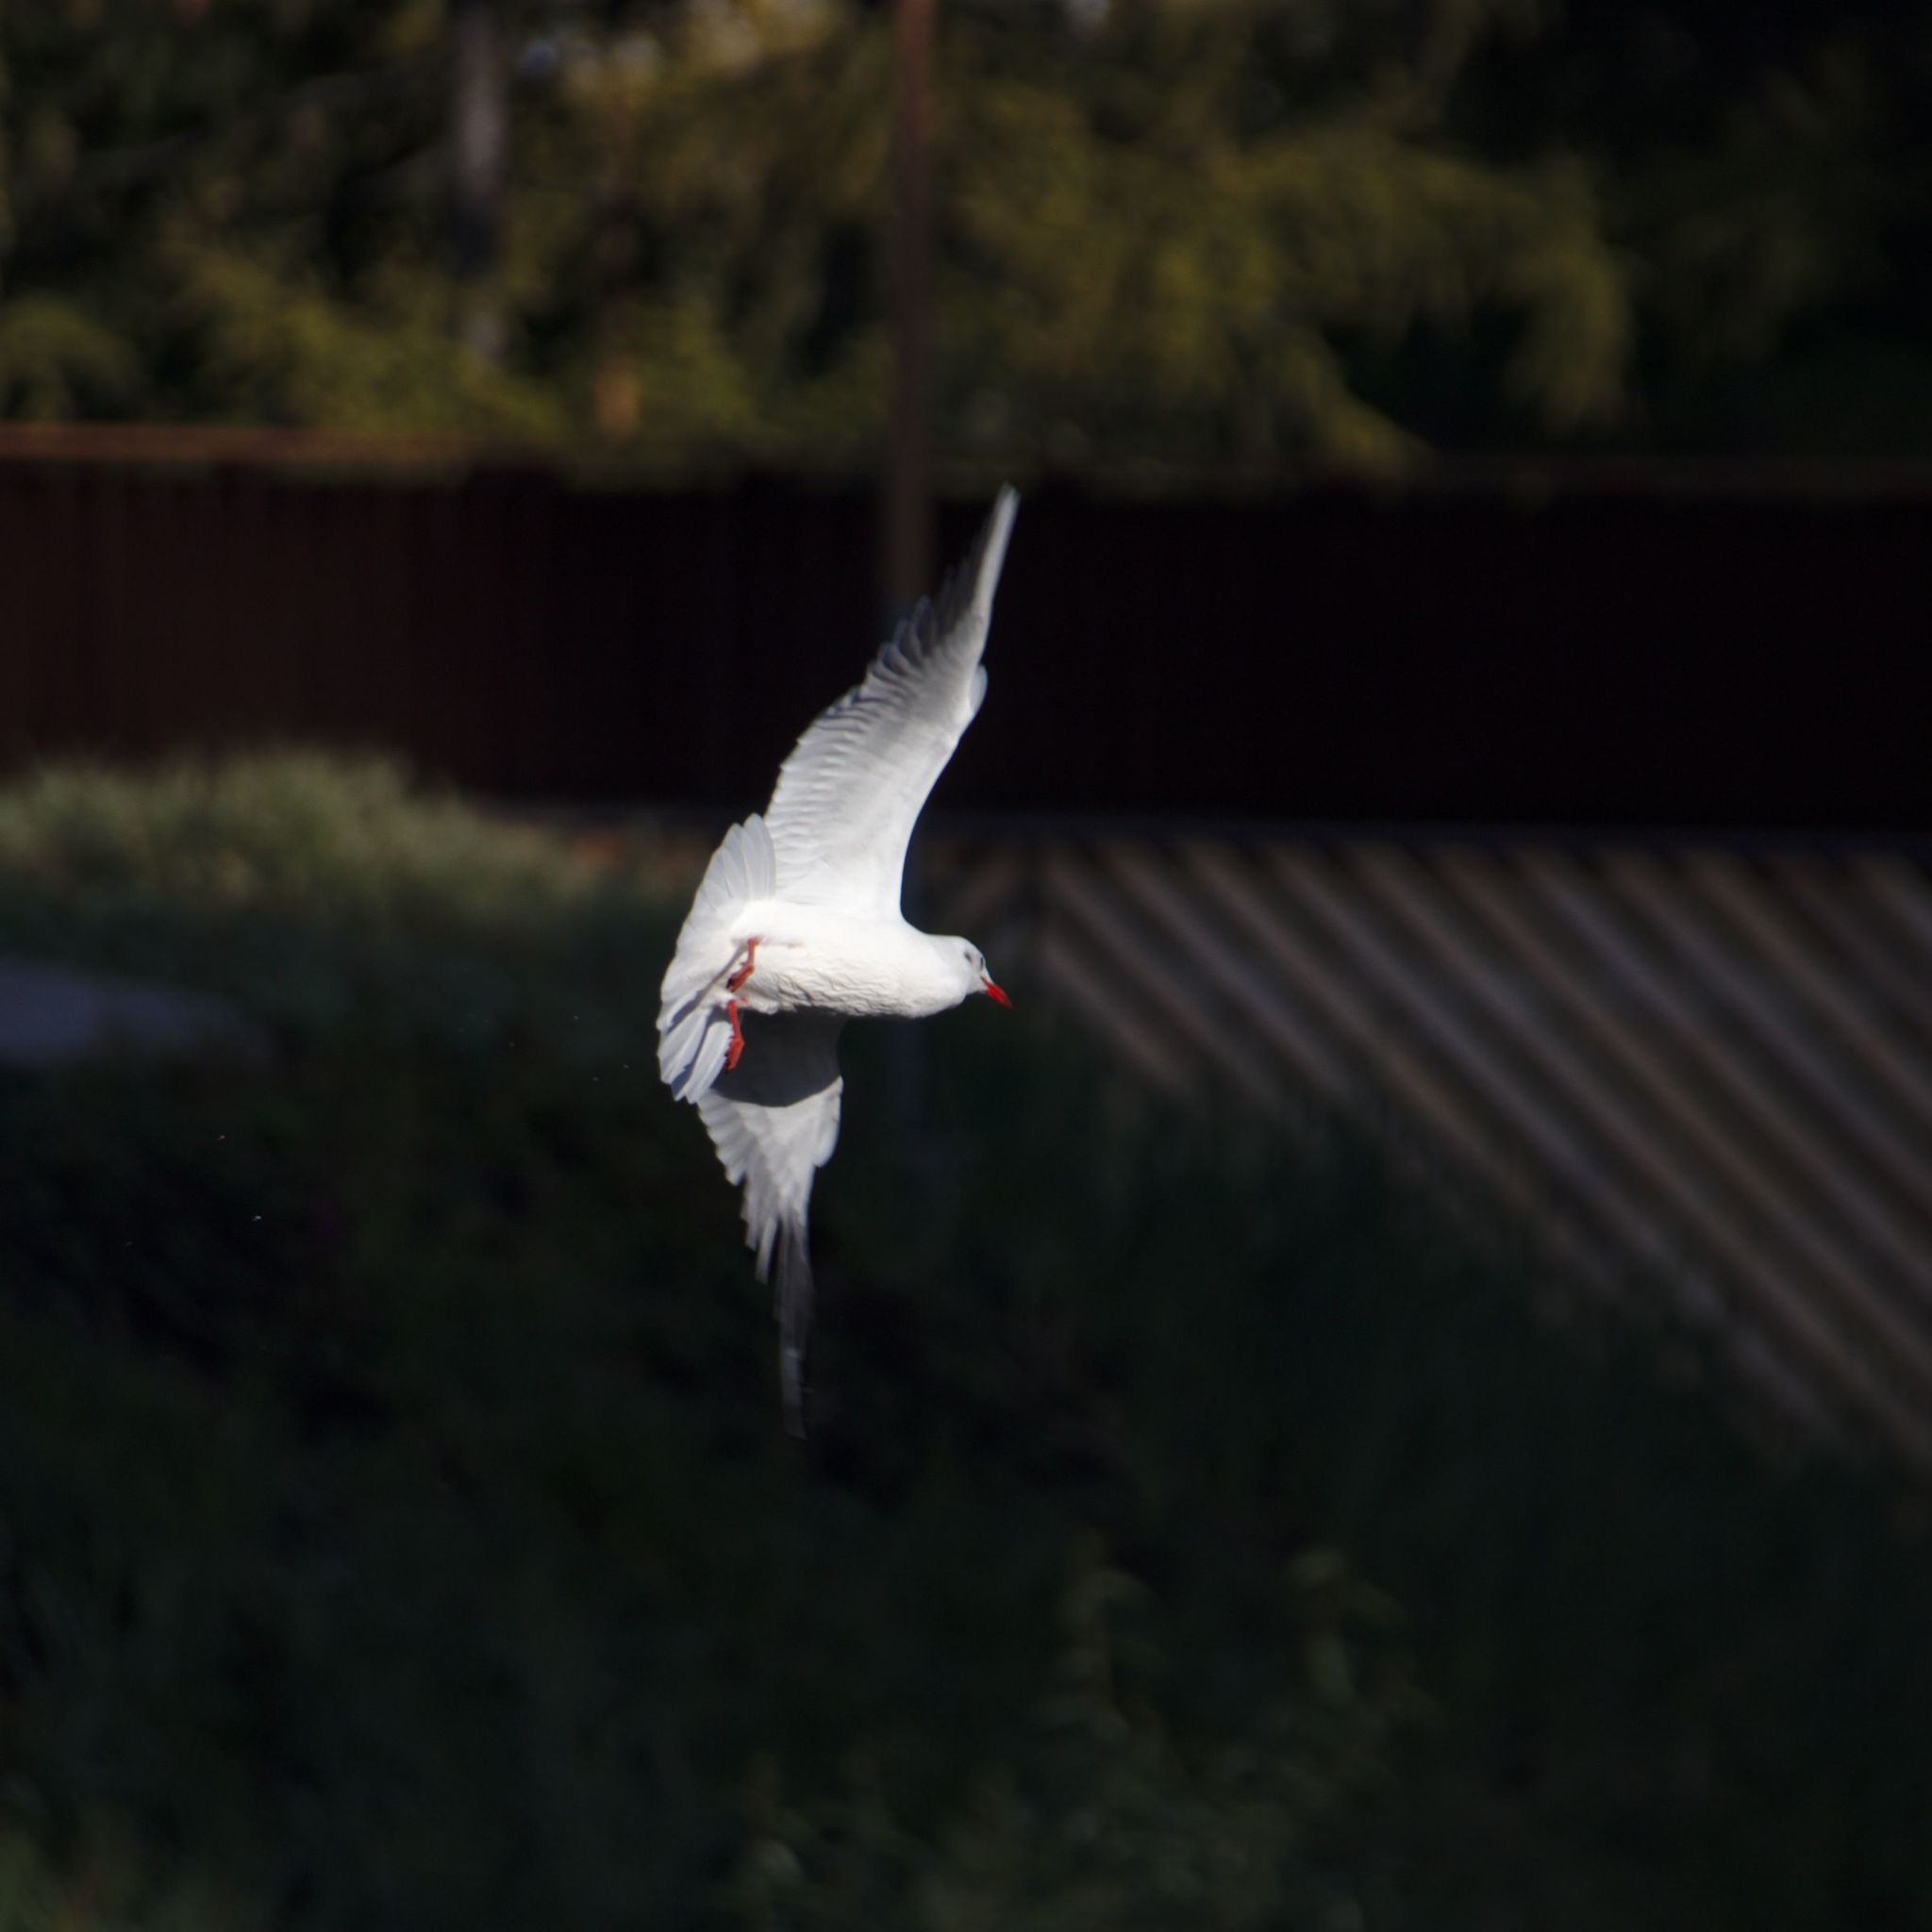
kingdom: Animalia
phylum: Chordata
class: Aves
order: Charadriiformes
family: Laridae
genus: Chroicocephalus
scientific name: Chroicocephalus ridibundus
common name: Black-headed gull
